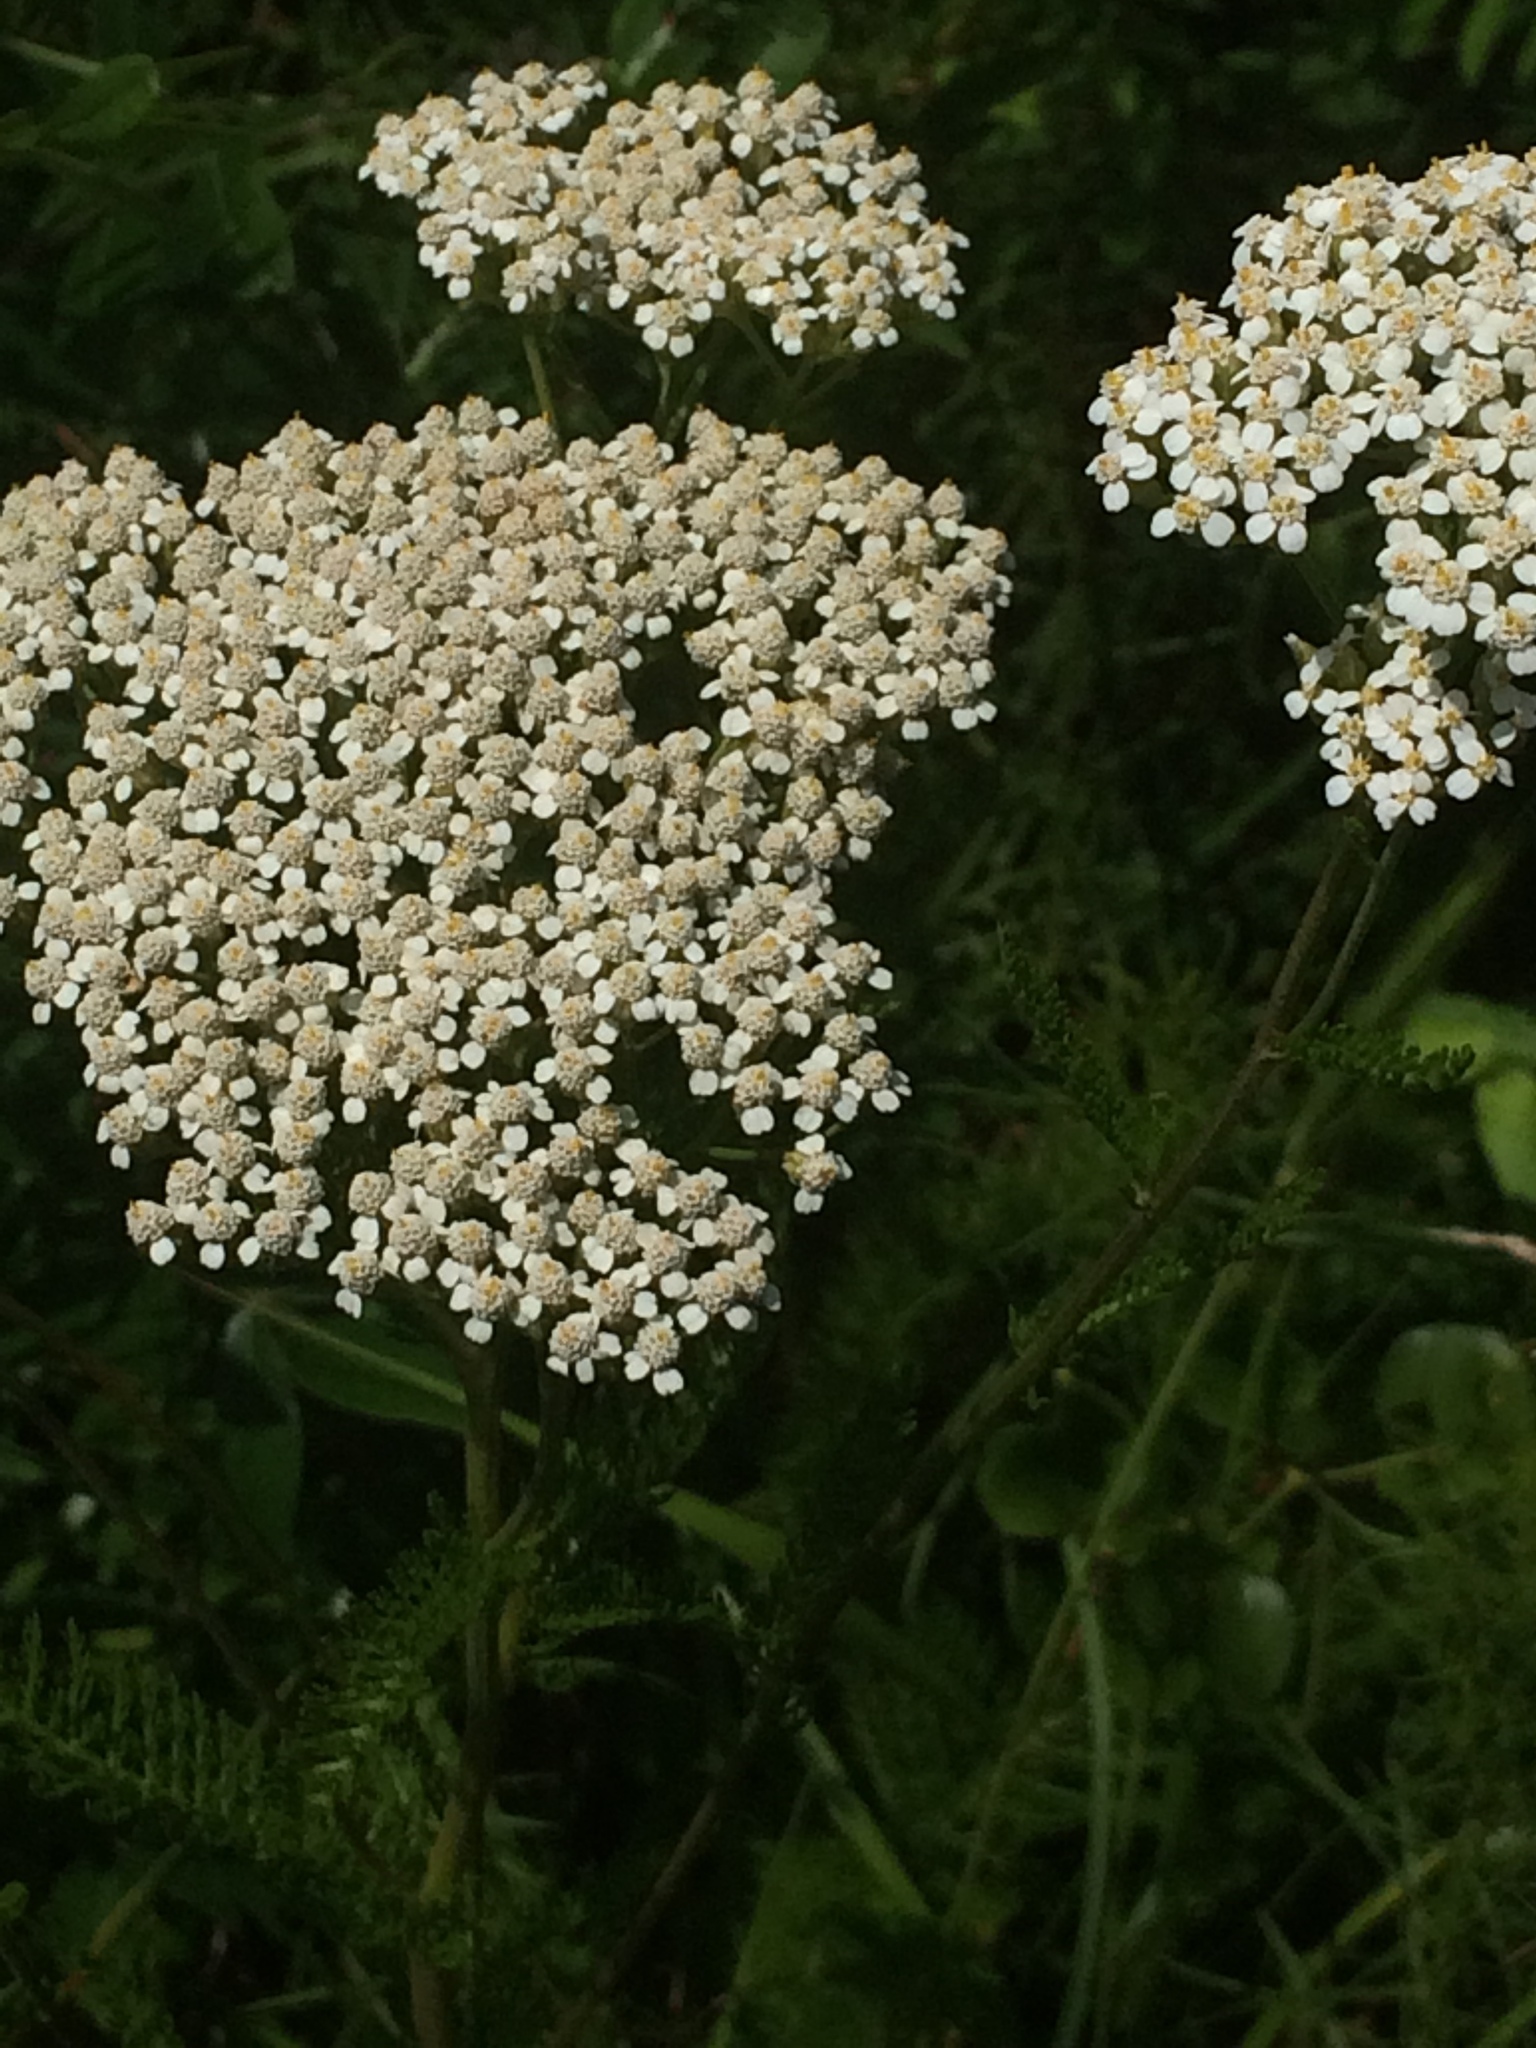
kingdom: Plantae
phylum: Tracheophyta
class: Magnoliopsida
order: Asterales
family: Asteraceae
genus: Achillea
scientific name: Achillea millefolium
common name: Yarrow
